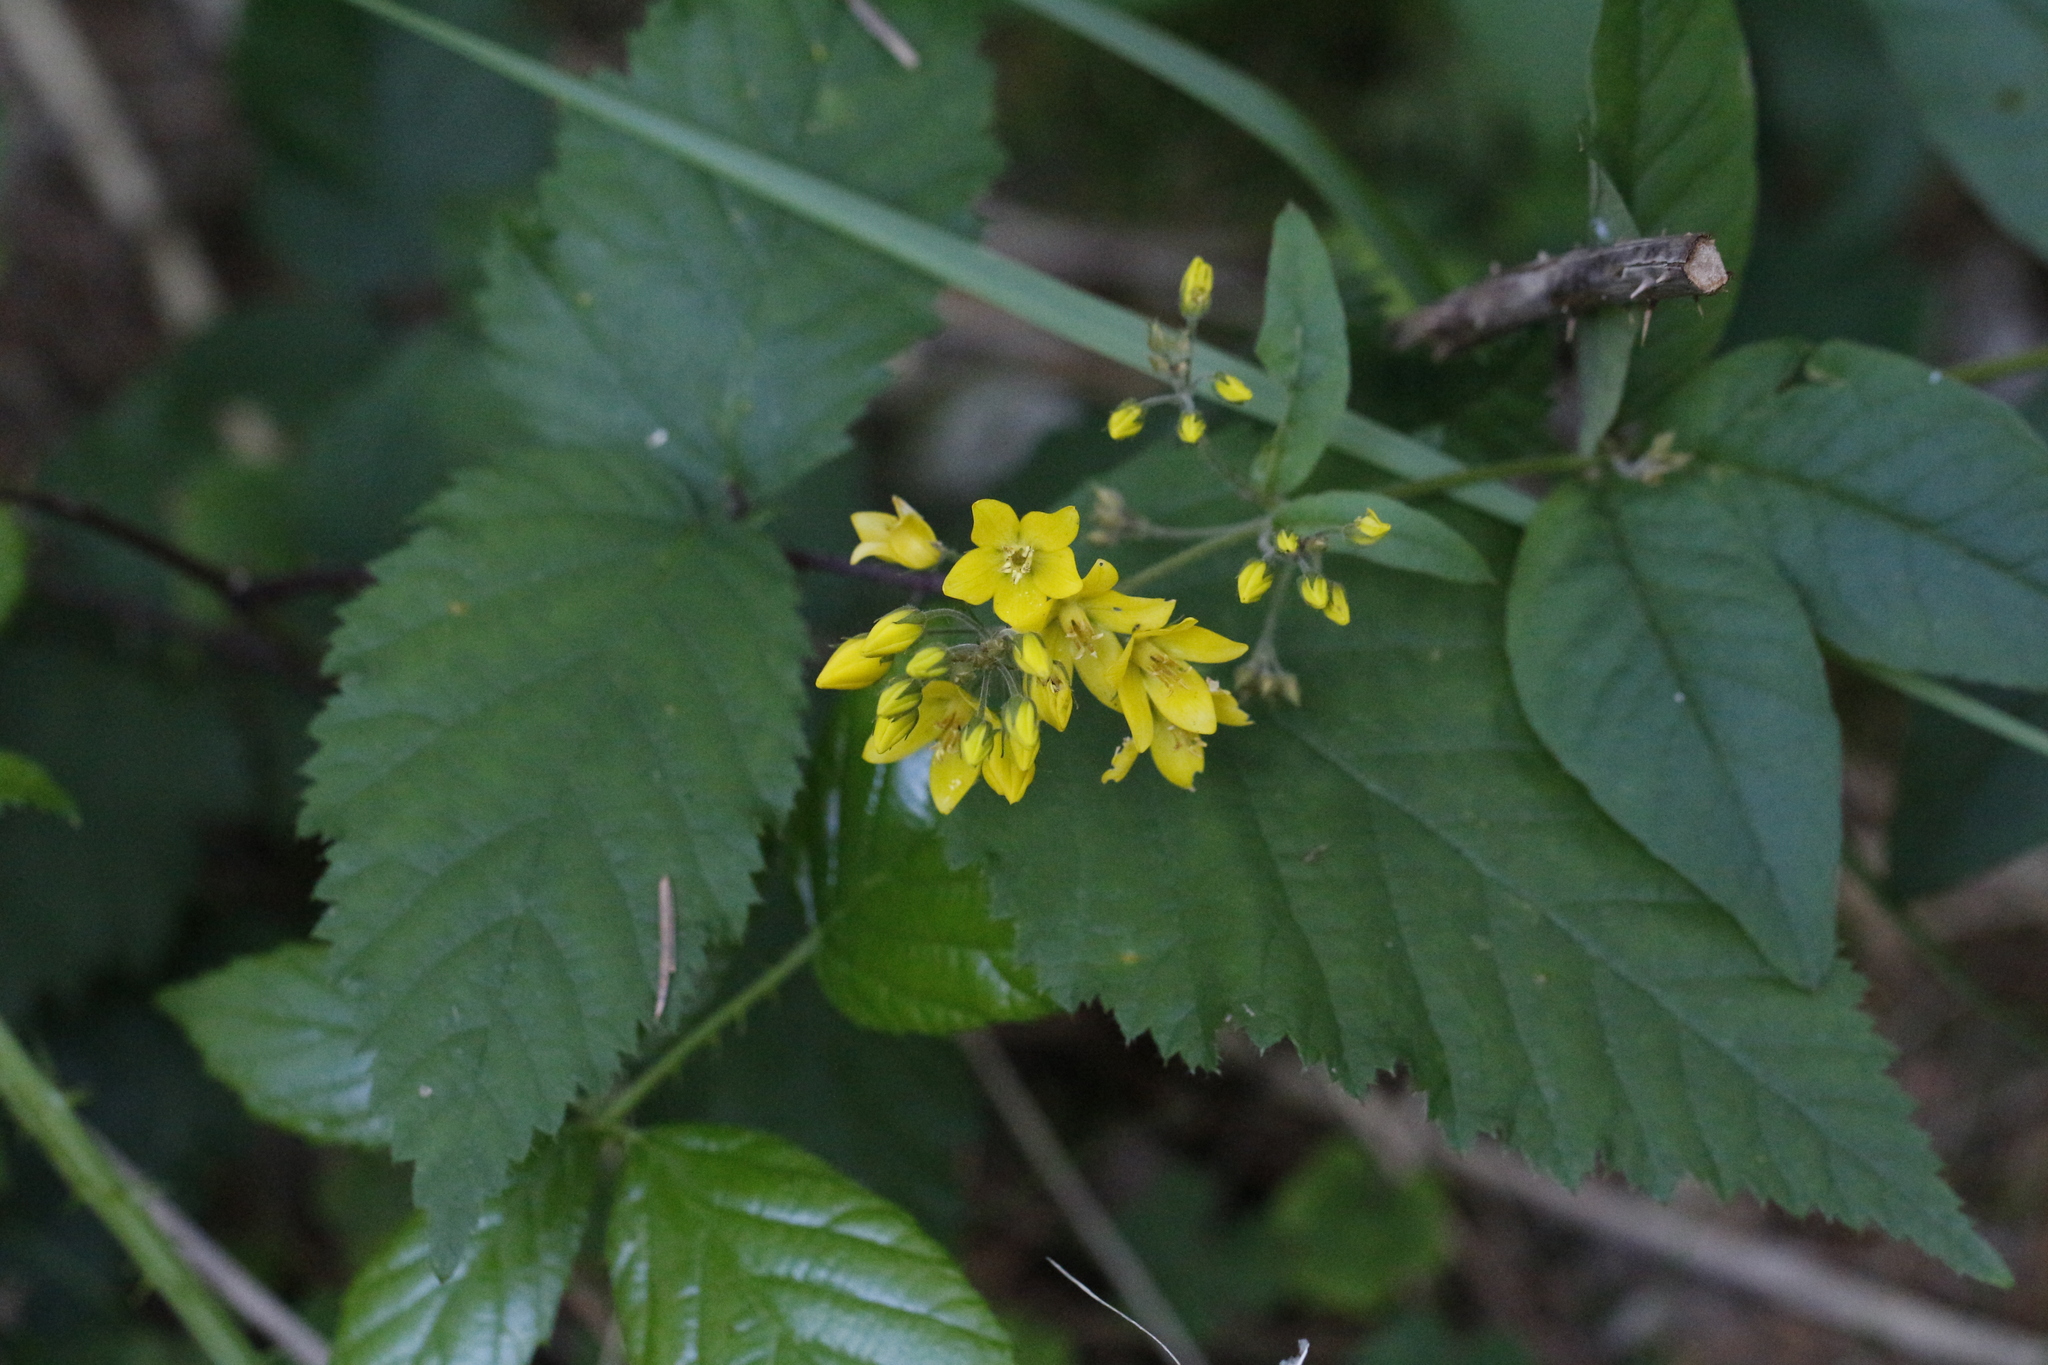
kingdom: Plantae
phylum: Tracheophyta
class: Magnoliopsida
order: Ericales
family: Primulaceae
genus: Lysimachia
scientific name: Lysimachia vulgaris
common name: Yellow loosestrife
